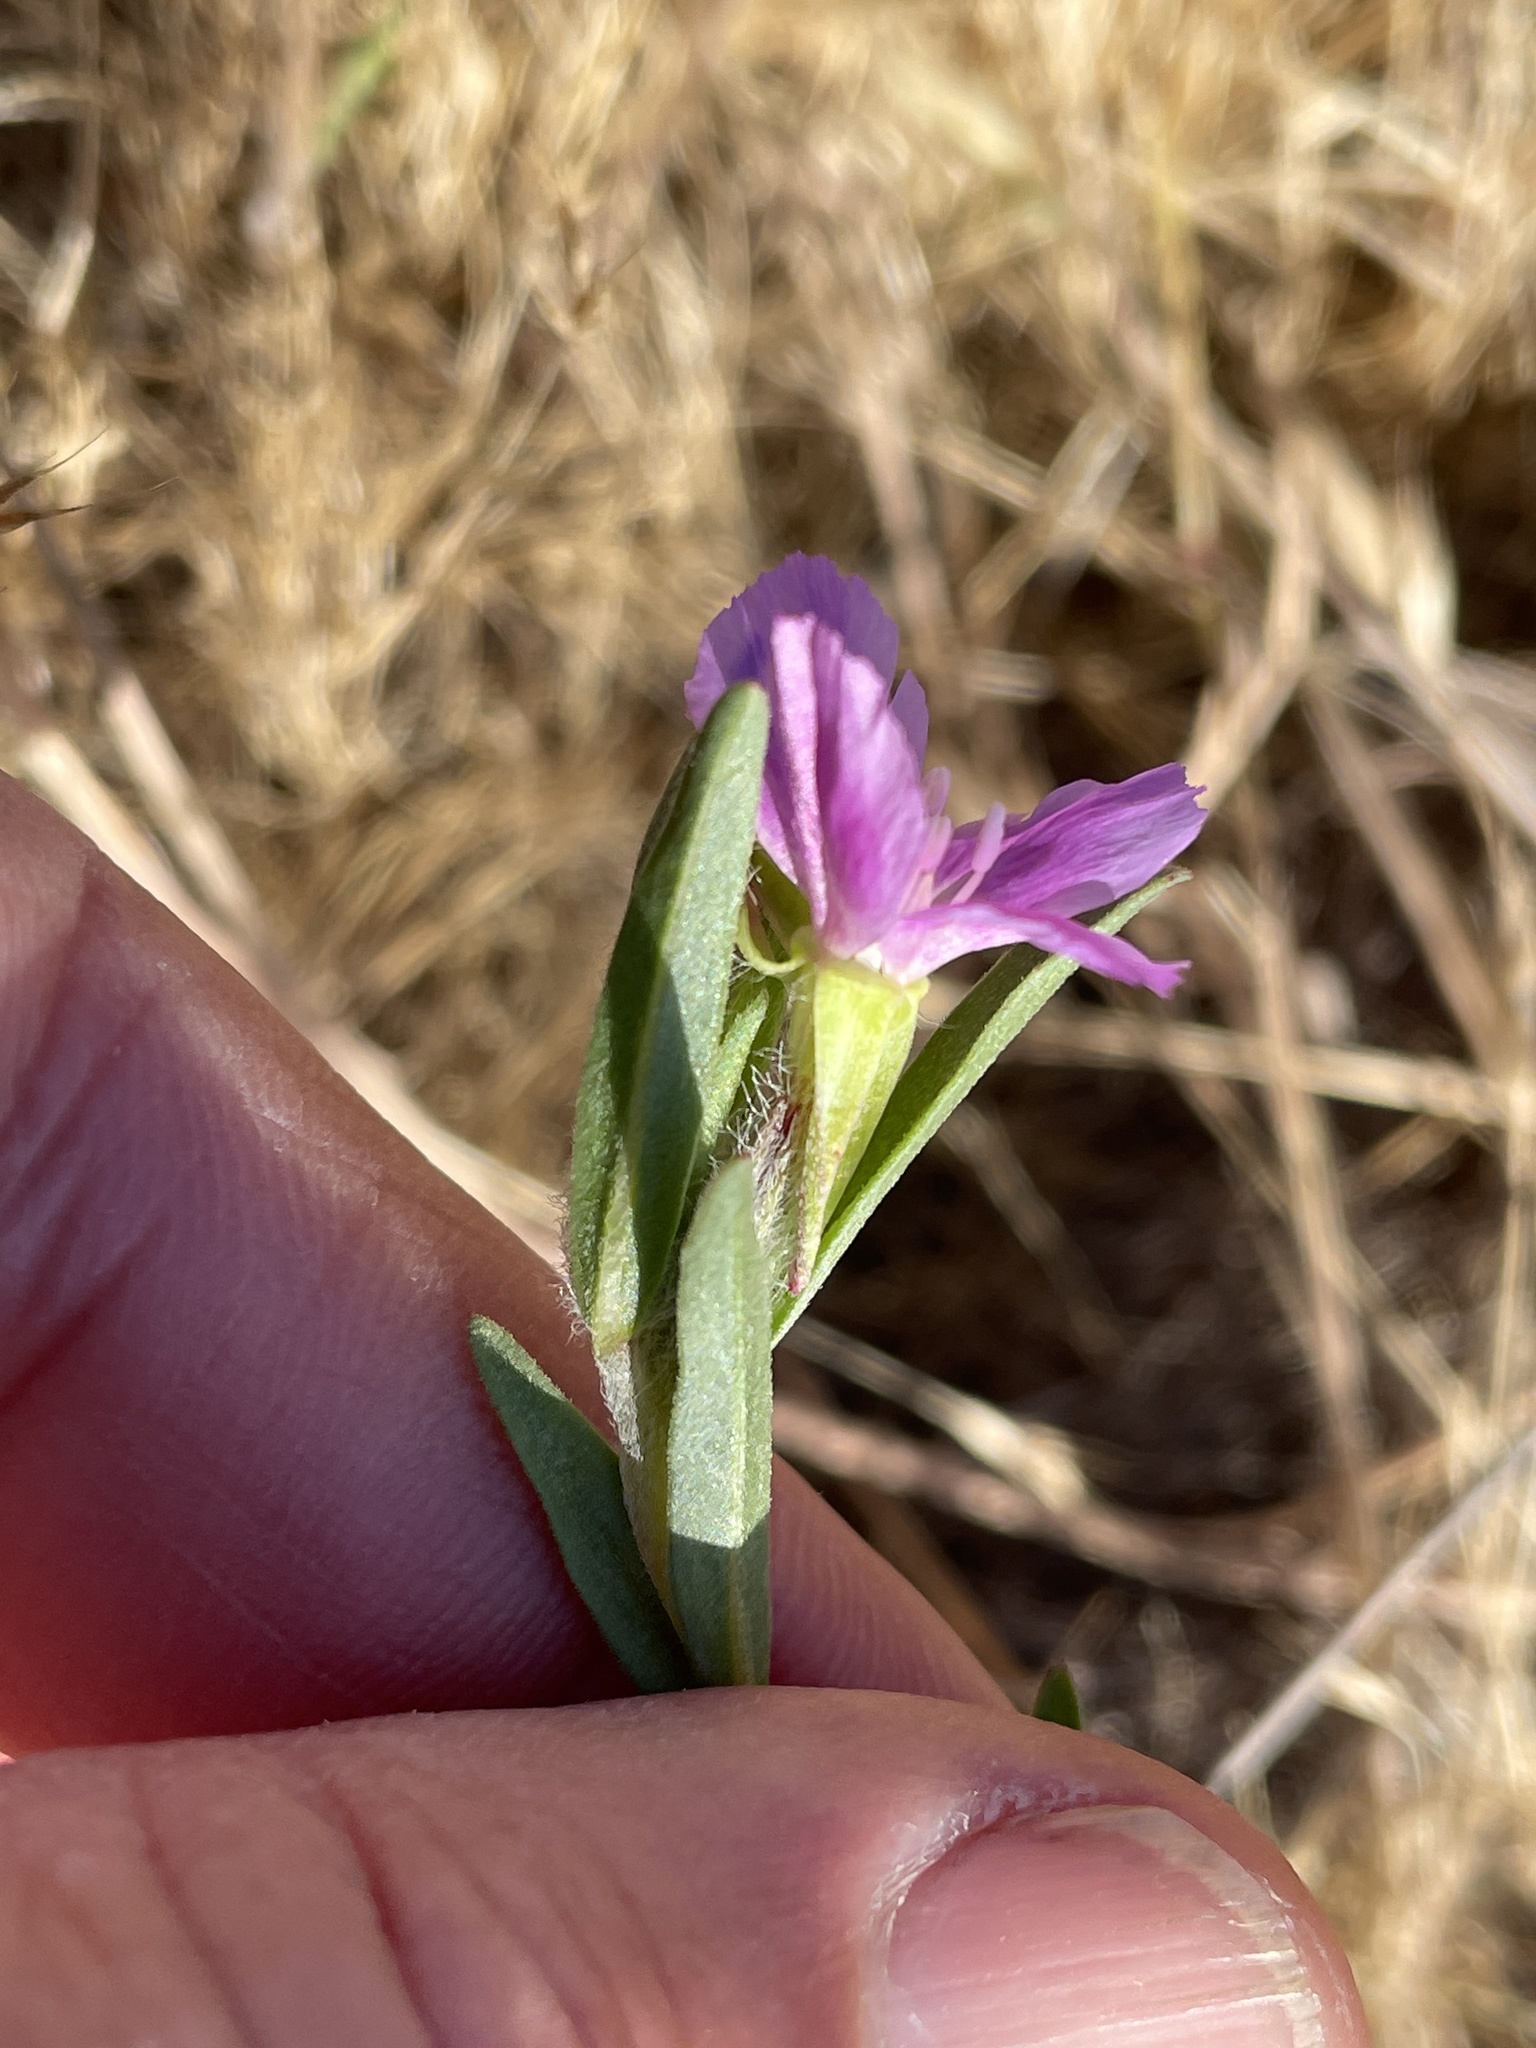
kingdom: Plantae
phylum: Tracheophyta
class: Magnoliopsida
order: Myrtales
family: Onagraceae
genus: Clarkia
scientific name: Clarkia purpurea
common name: Purple clarkia
